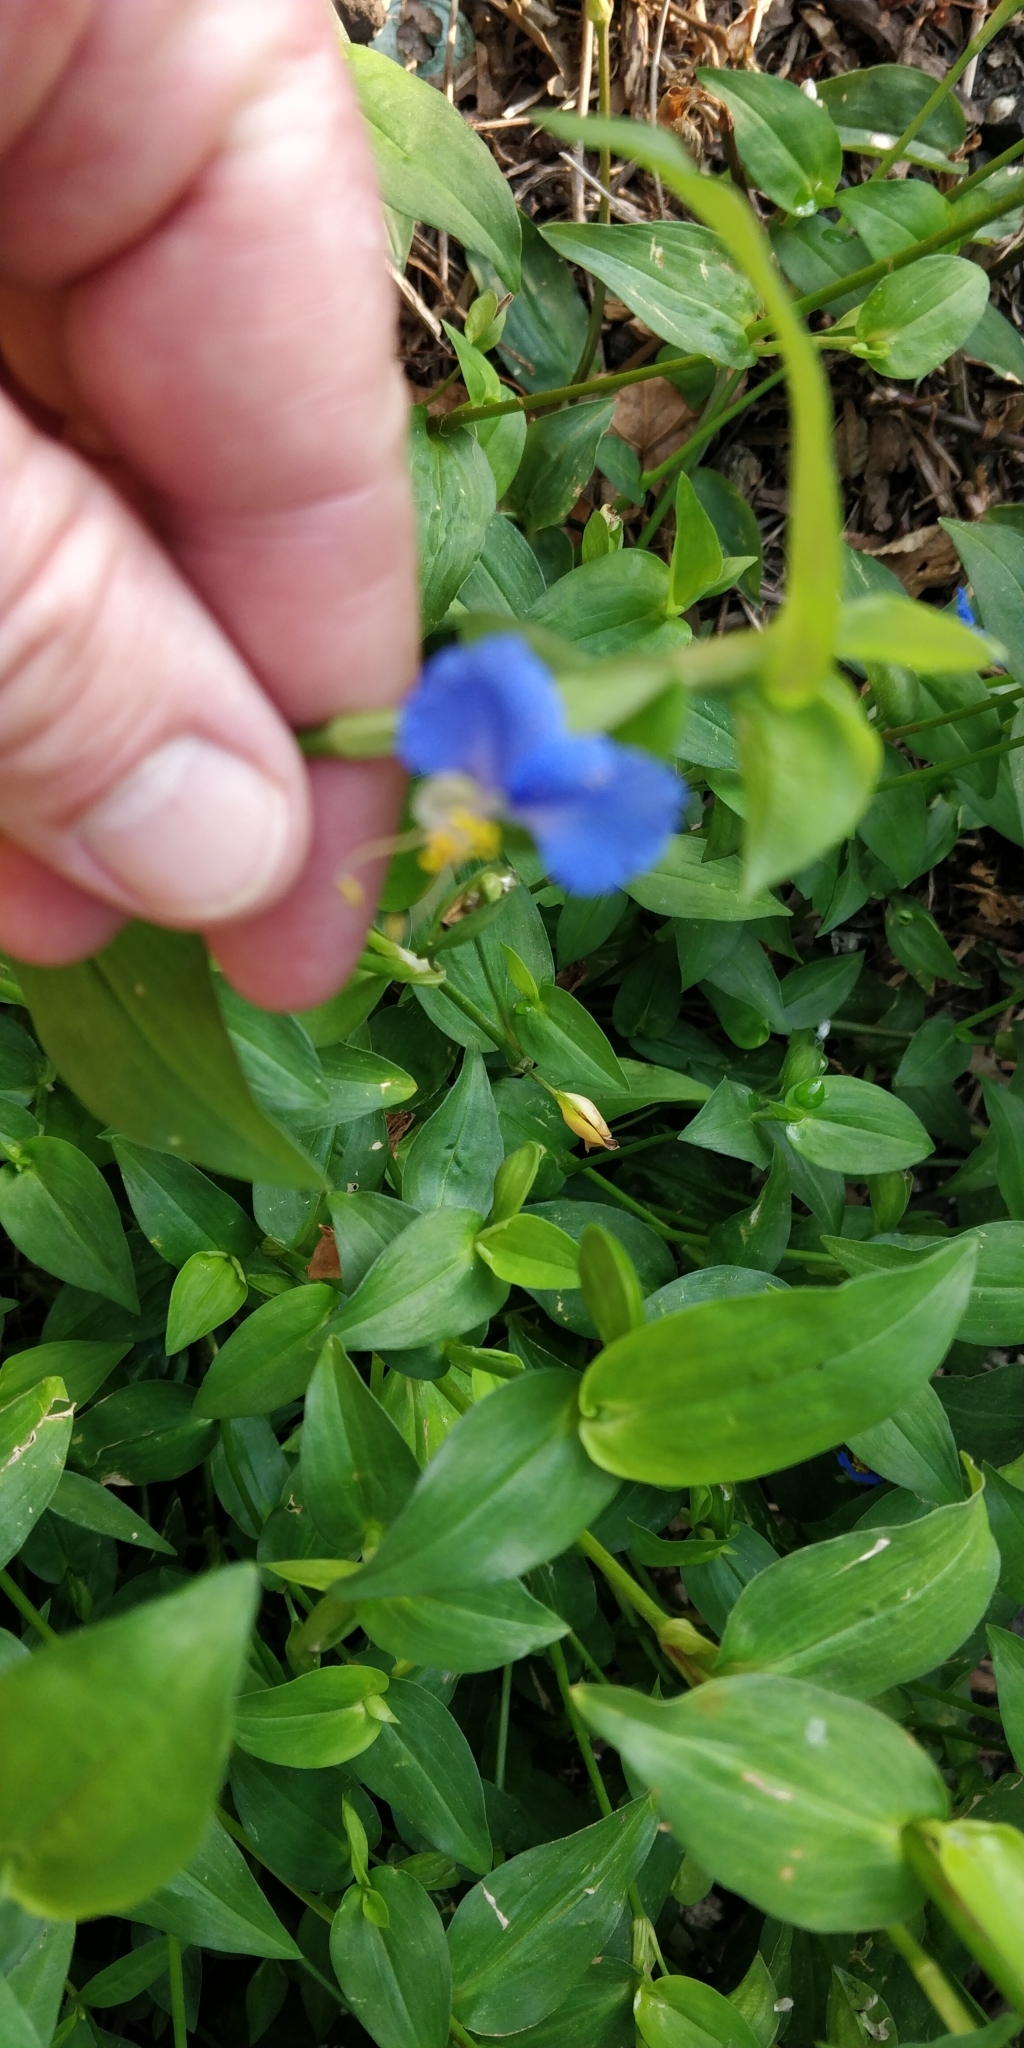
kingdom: Plantae
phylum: Tracheophyta
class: Liliopsida
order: Commelinales
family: Commelinaceae
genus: Commelina
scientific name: Commelina communis
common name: Asiatic dayflower
